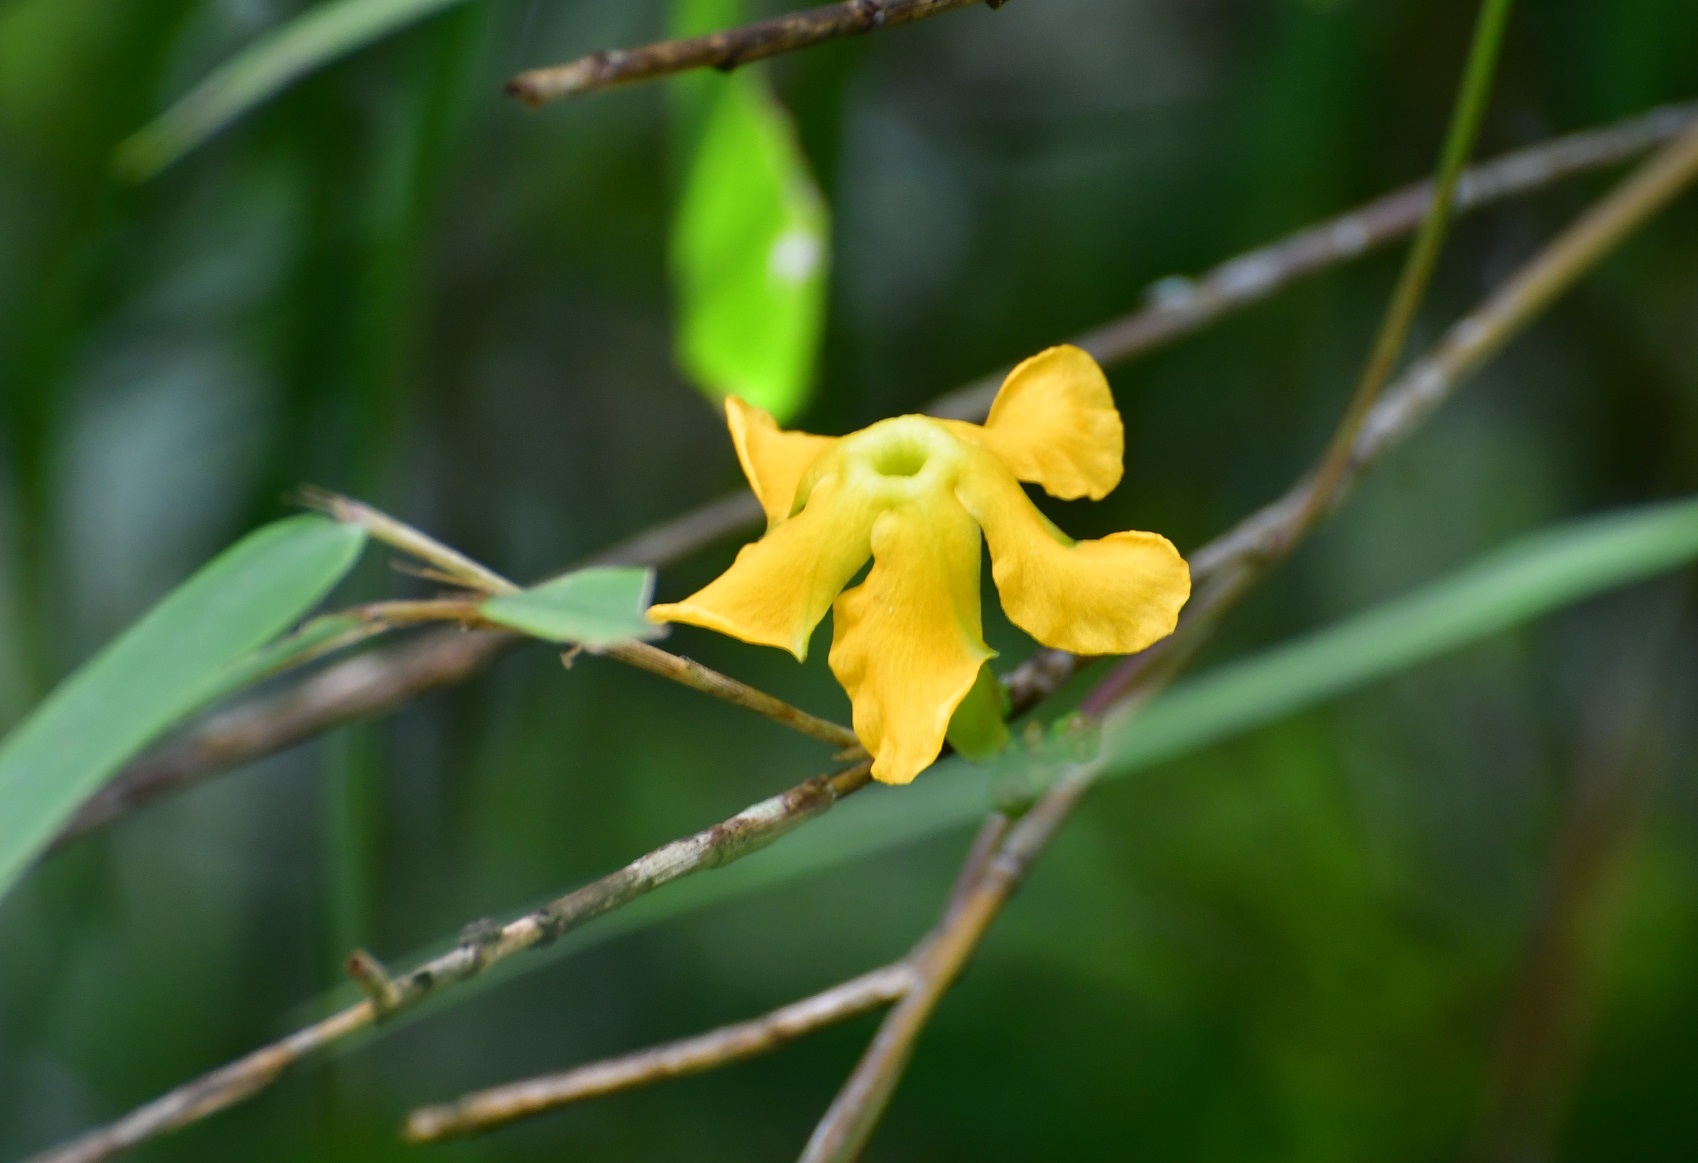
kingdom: Plantae
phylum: Tracheophyta
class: Magnoliopsida
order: Gentianales
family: Apocynaceae
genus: Mandevilla
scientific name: Mandevilla subsagittata
